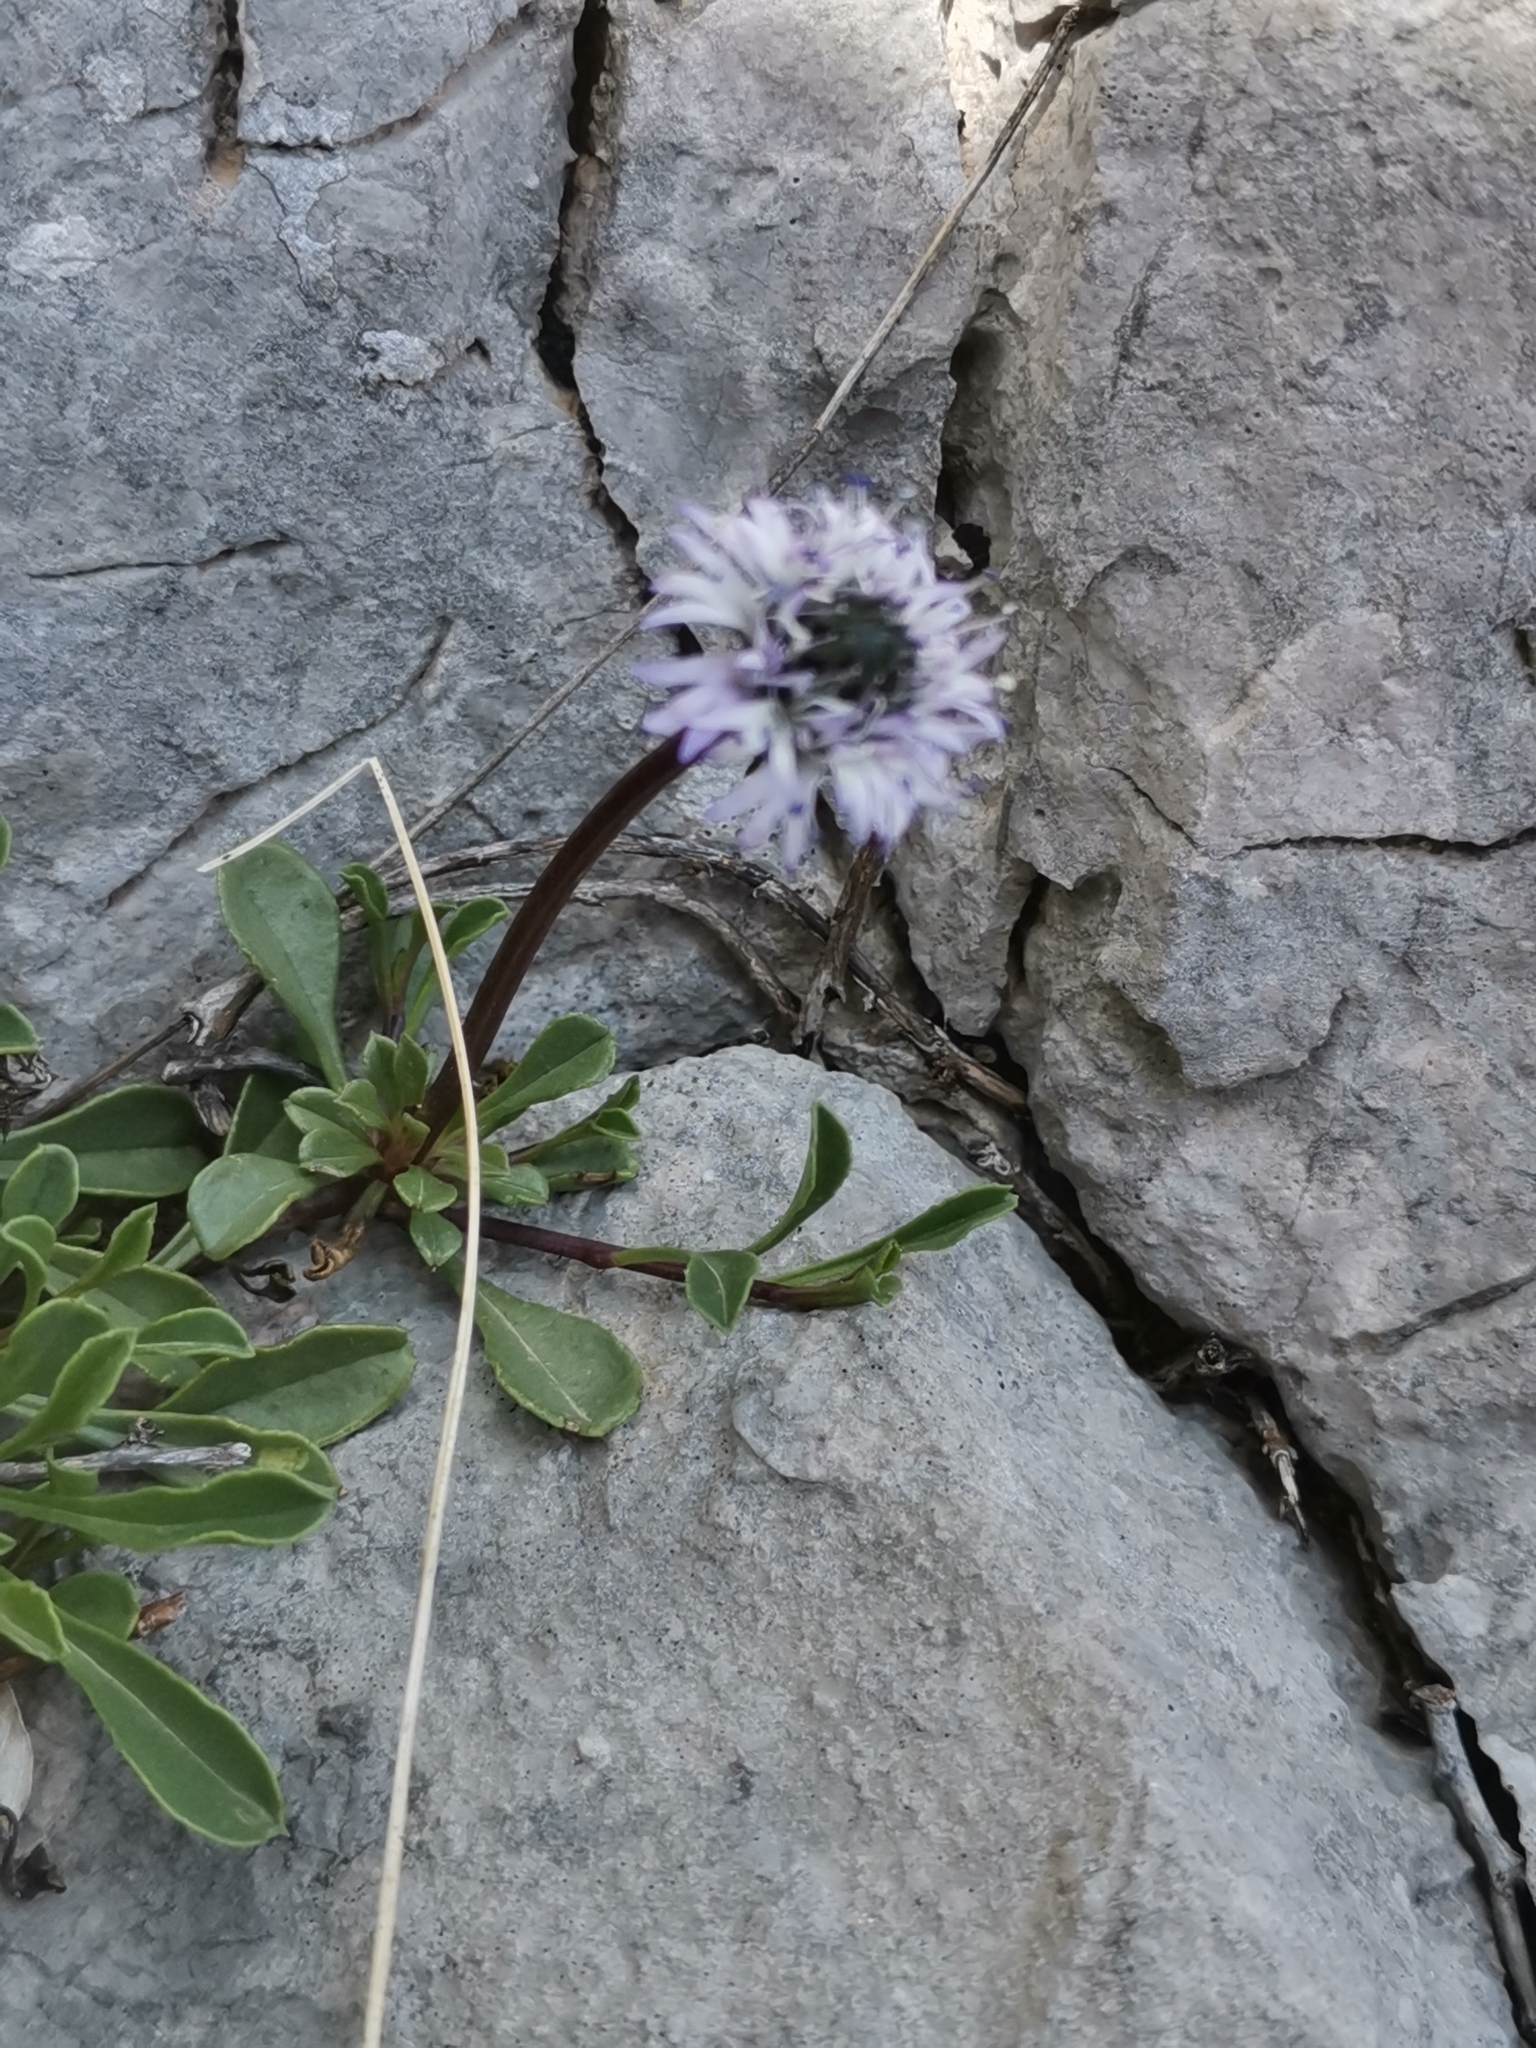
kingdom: Plantae
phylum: Tracheophyta
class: Magnoliopsida
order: Lamiales
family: Plantaginaceae
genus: Globularia
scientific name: Globularia cordifolia
